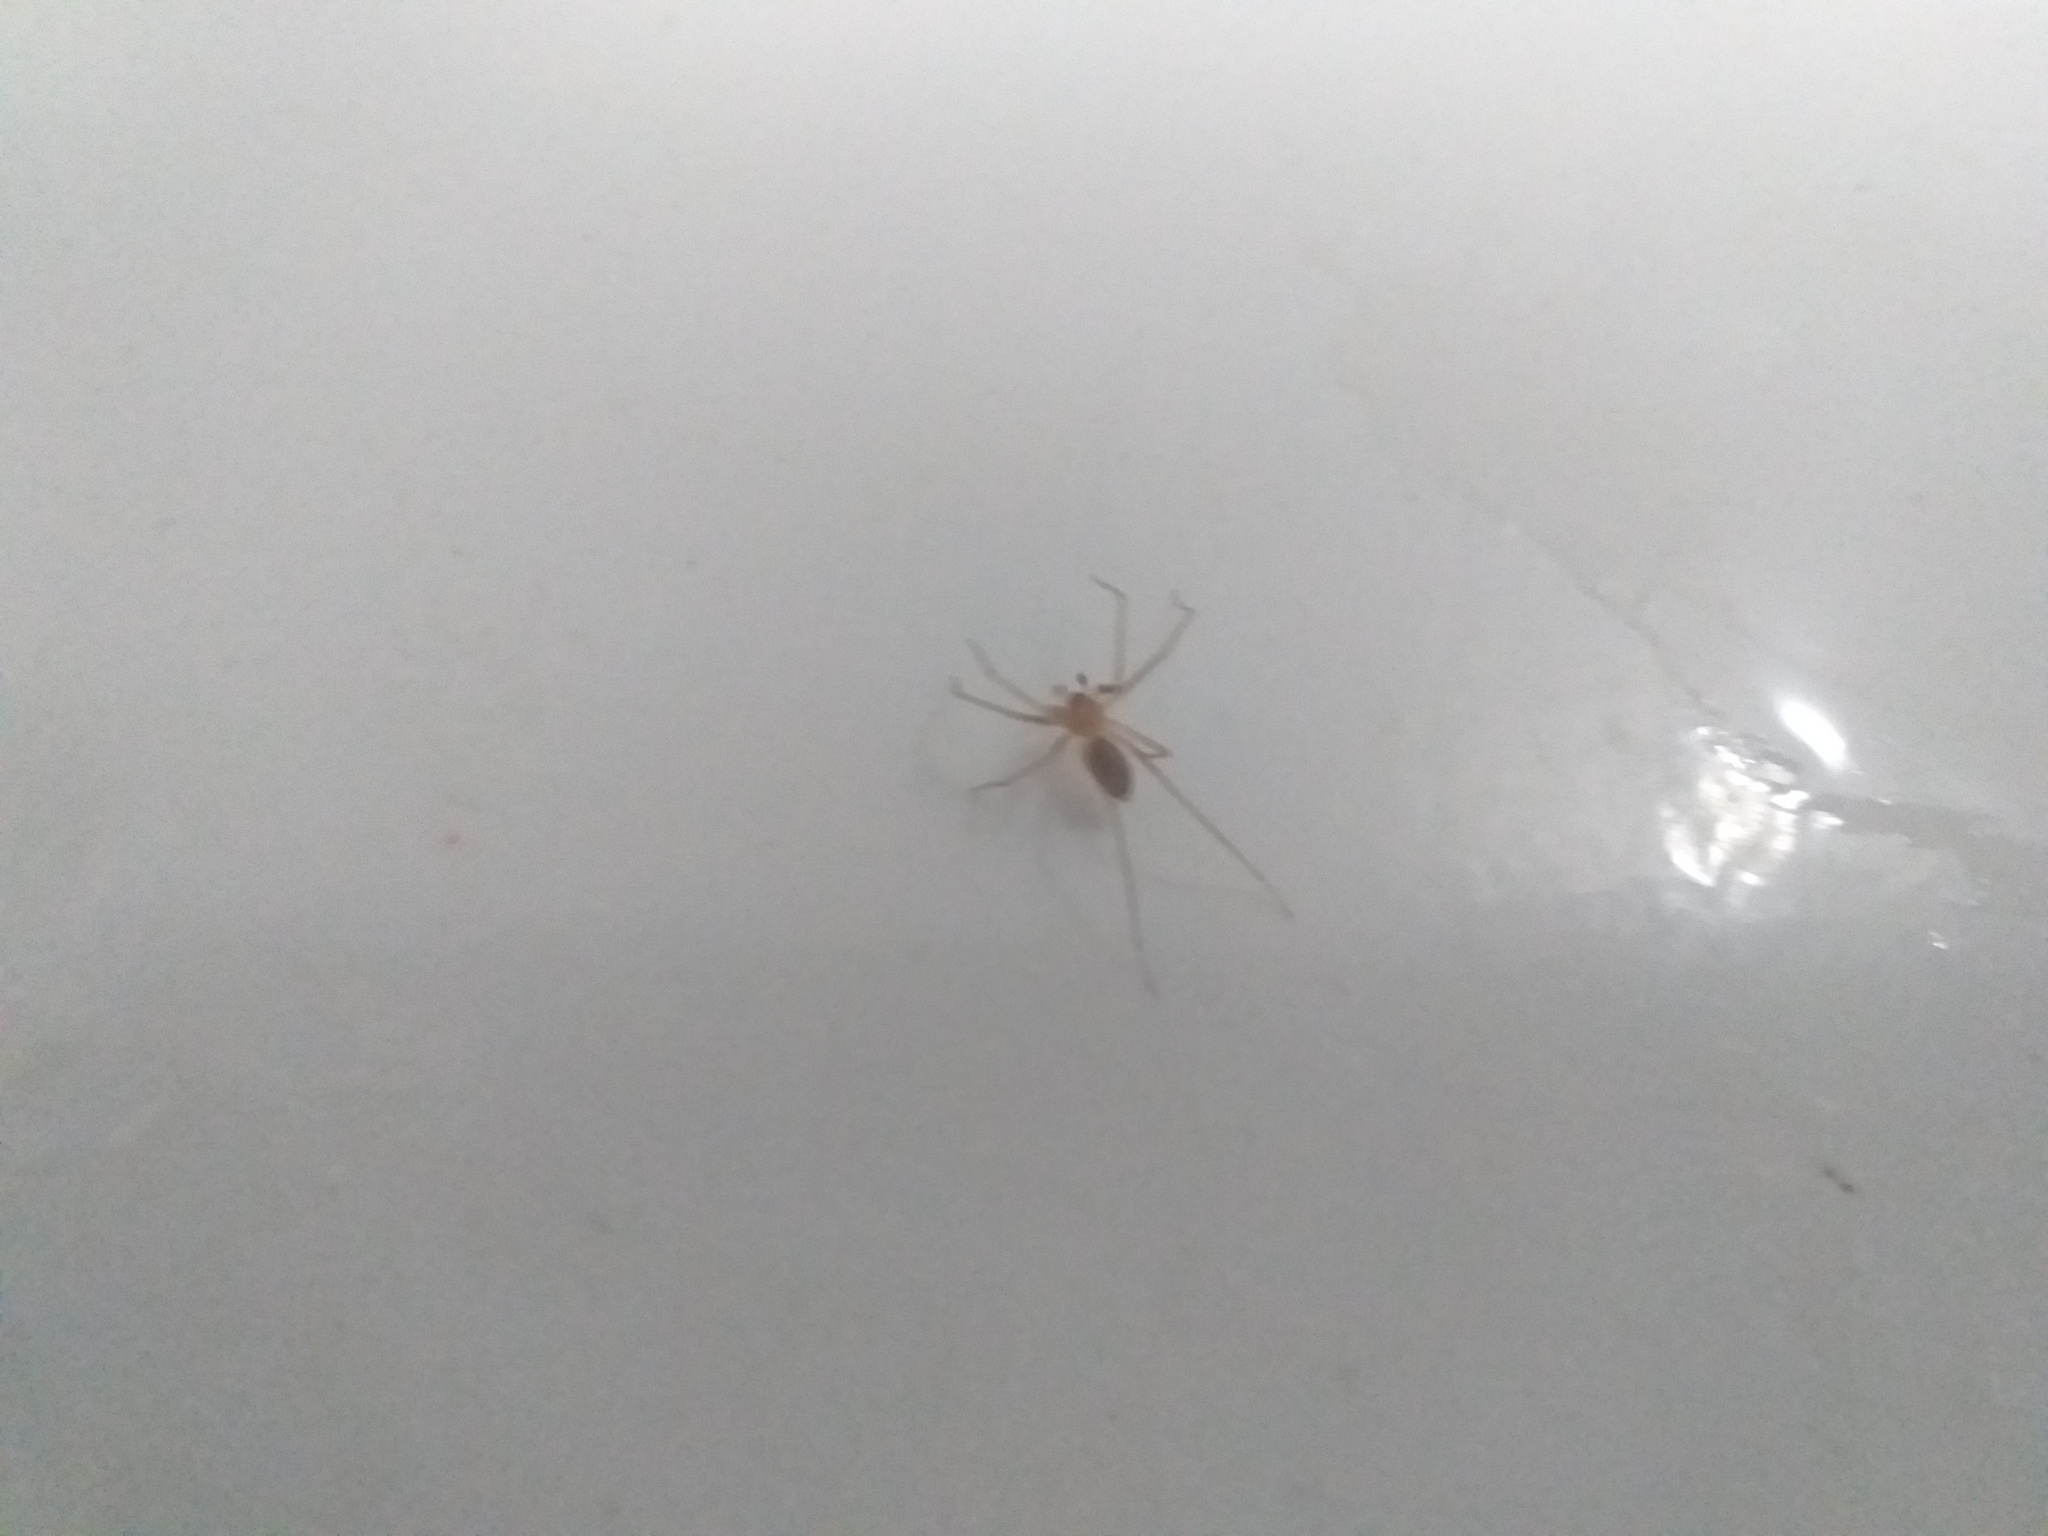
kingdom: Animalia
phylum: Arthropoda
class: Arachnida
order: Araneae
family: Cithaeronidae
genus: Cithaeron
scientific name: Cithaeron praedonius
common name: Synanthropic spider
